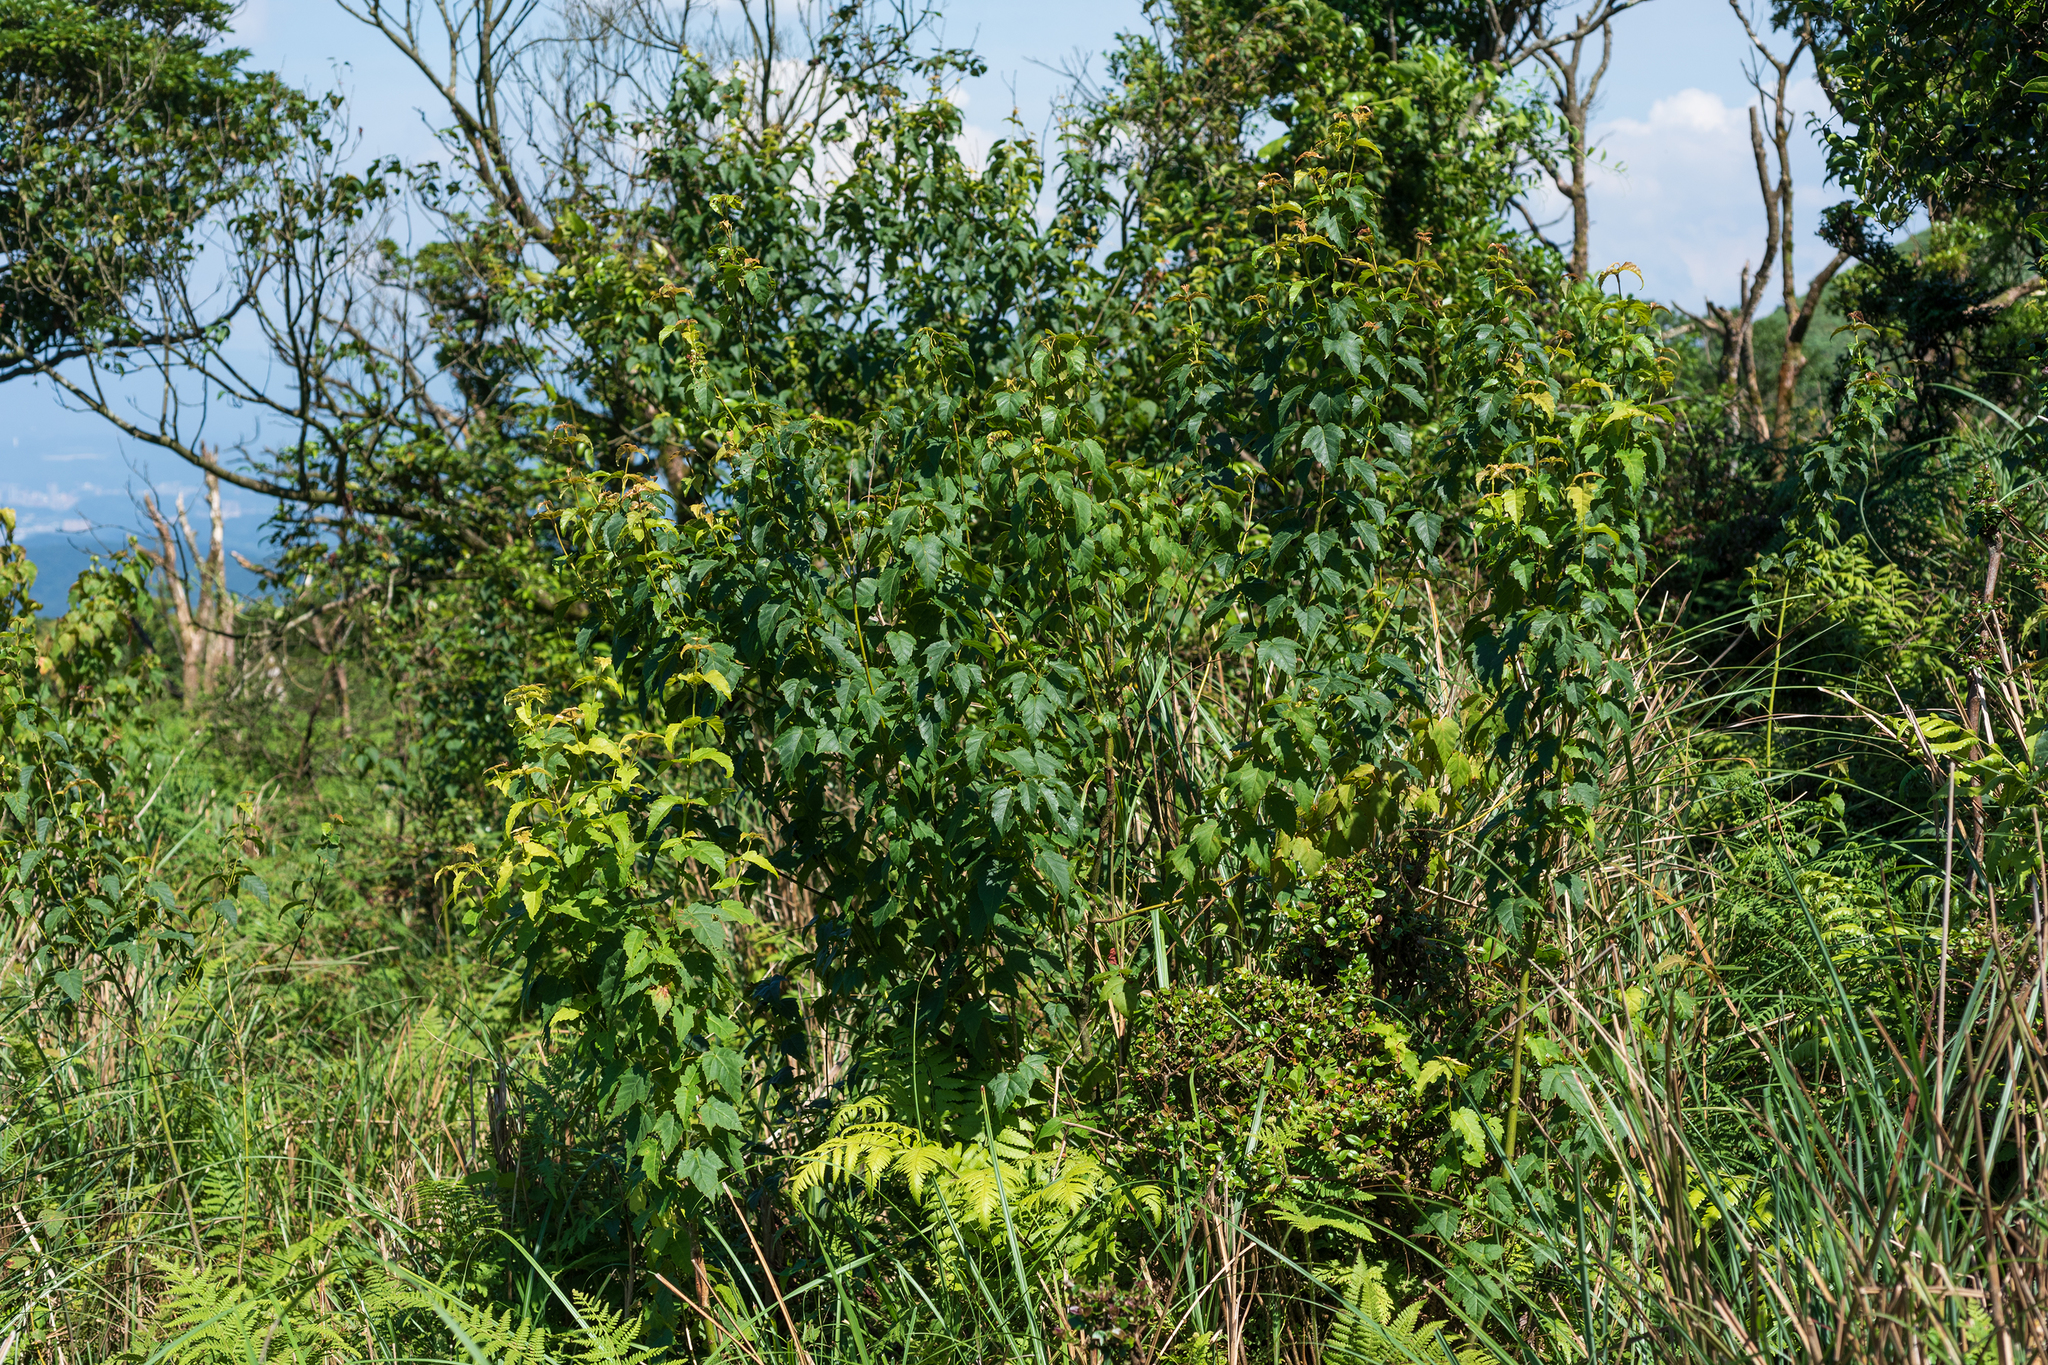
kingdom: Plantae
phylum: Tracheophyta
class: Magnoliopsida
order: Sapindales
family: Sapindaceae
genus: Acer
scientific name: Acer caudatifolium
